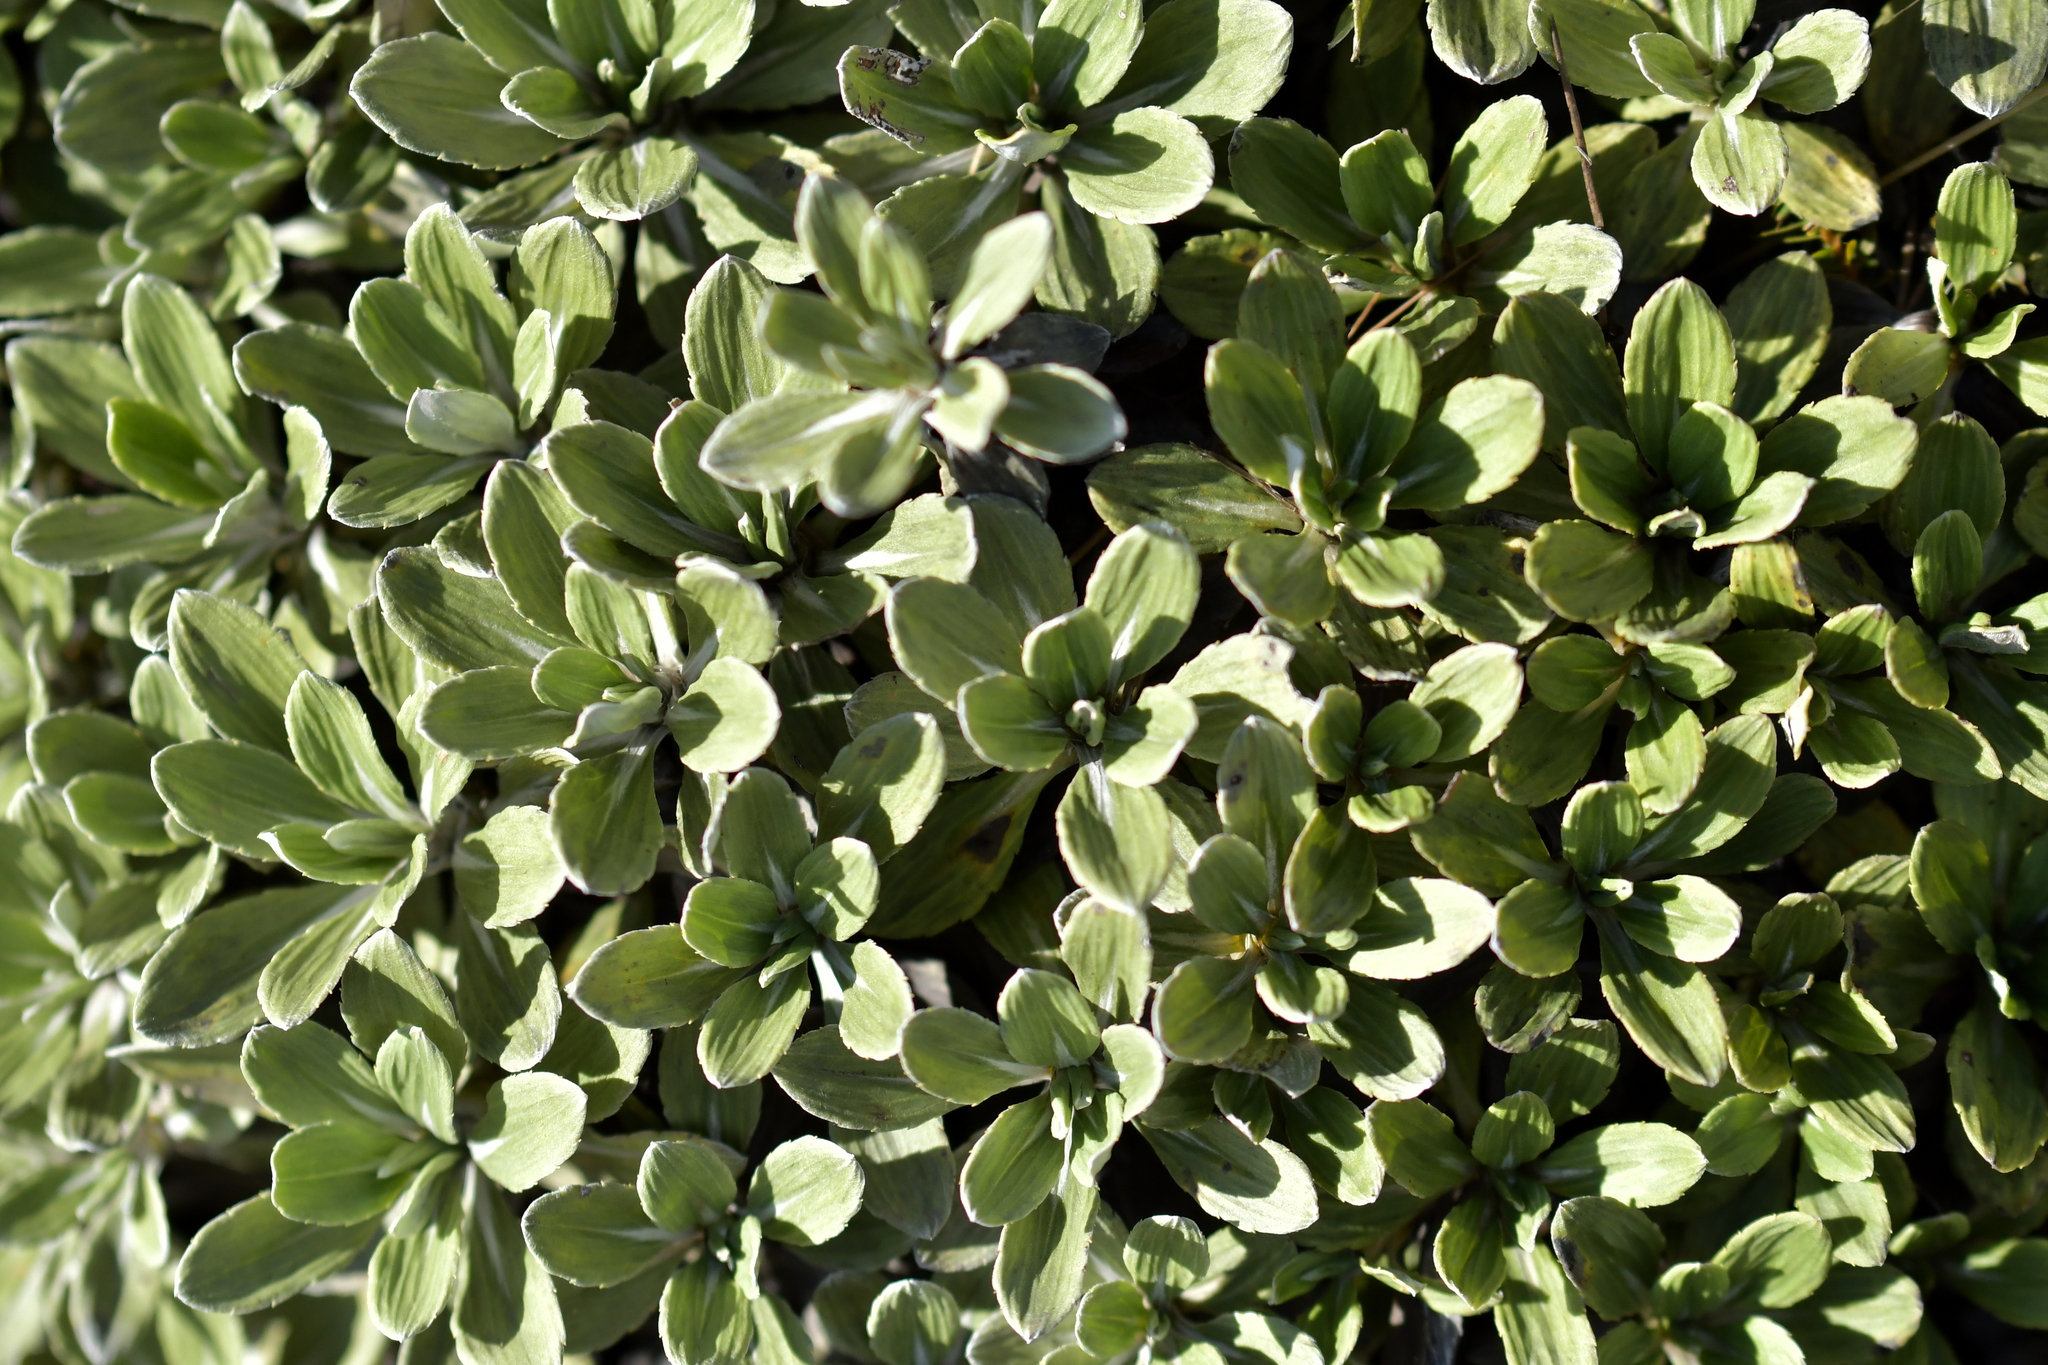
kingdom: Plantae
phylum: Tracheophyta
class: Magnoliopsida
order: Asterales
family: Asteraceae
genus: Celmisia
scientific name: Celmisia discolor
